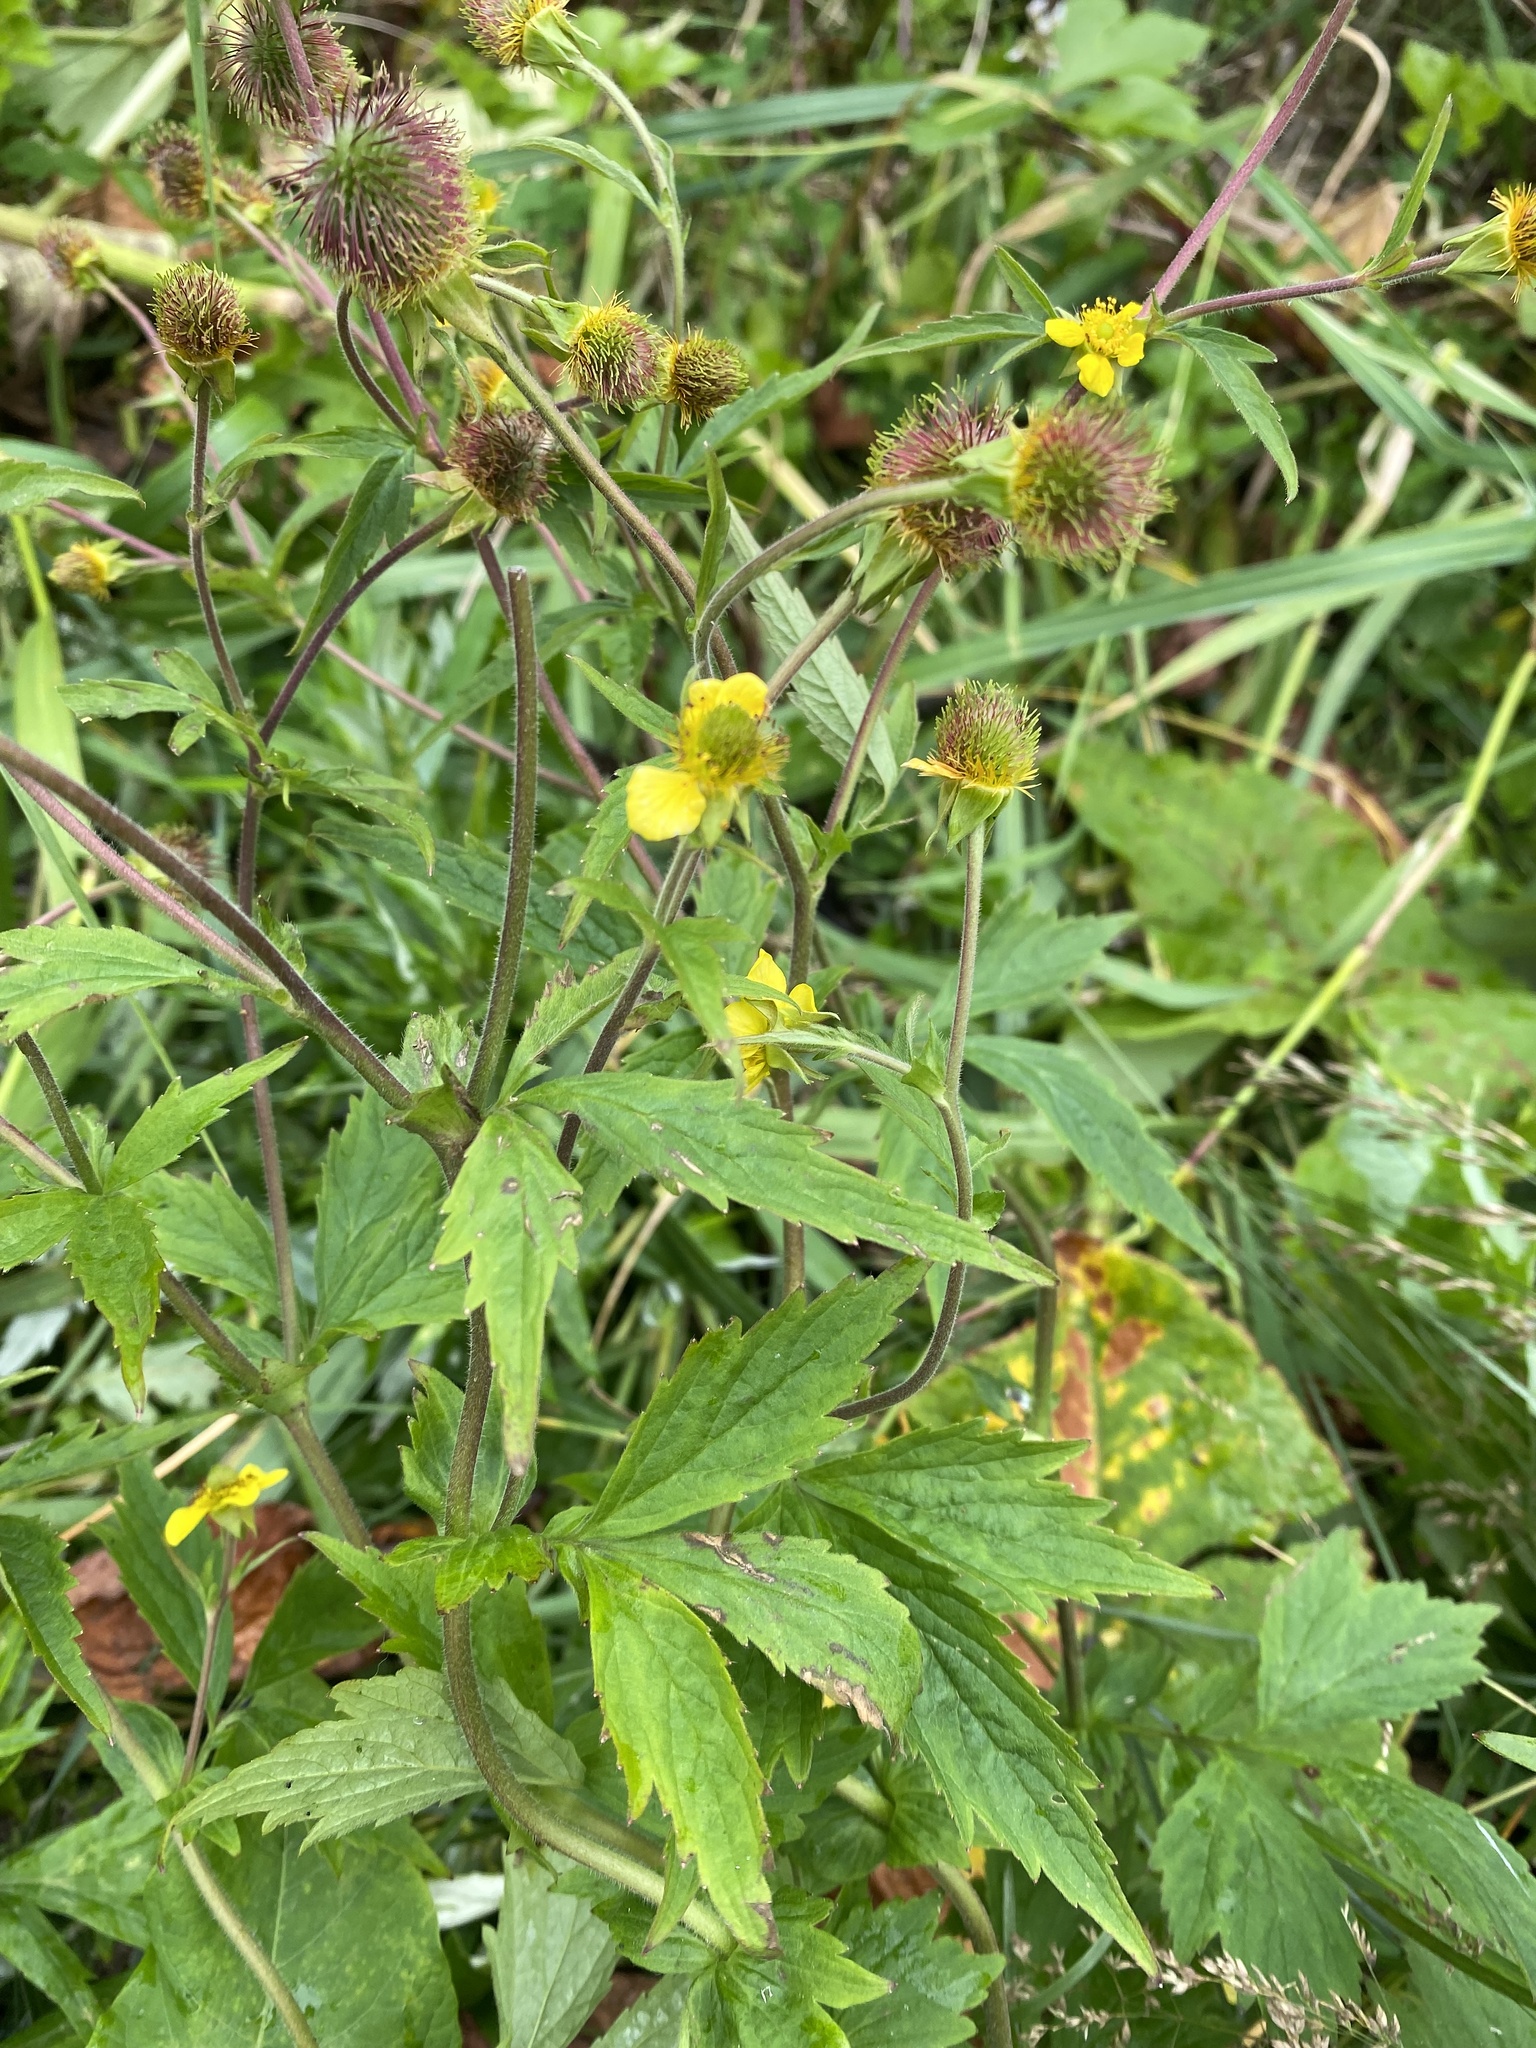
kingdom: Plantae
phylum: Tracheophyta
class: Magnoliopsida
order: Rosales
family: Rosaceae
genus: Geum
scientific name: Geum aleppicum
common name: Yellow avens
